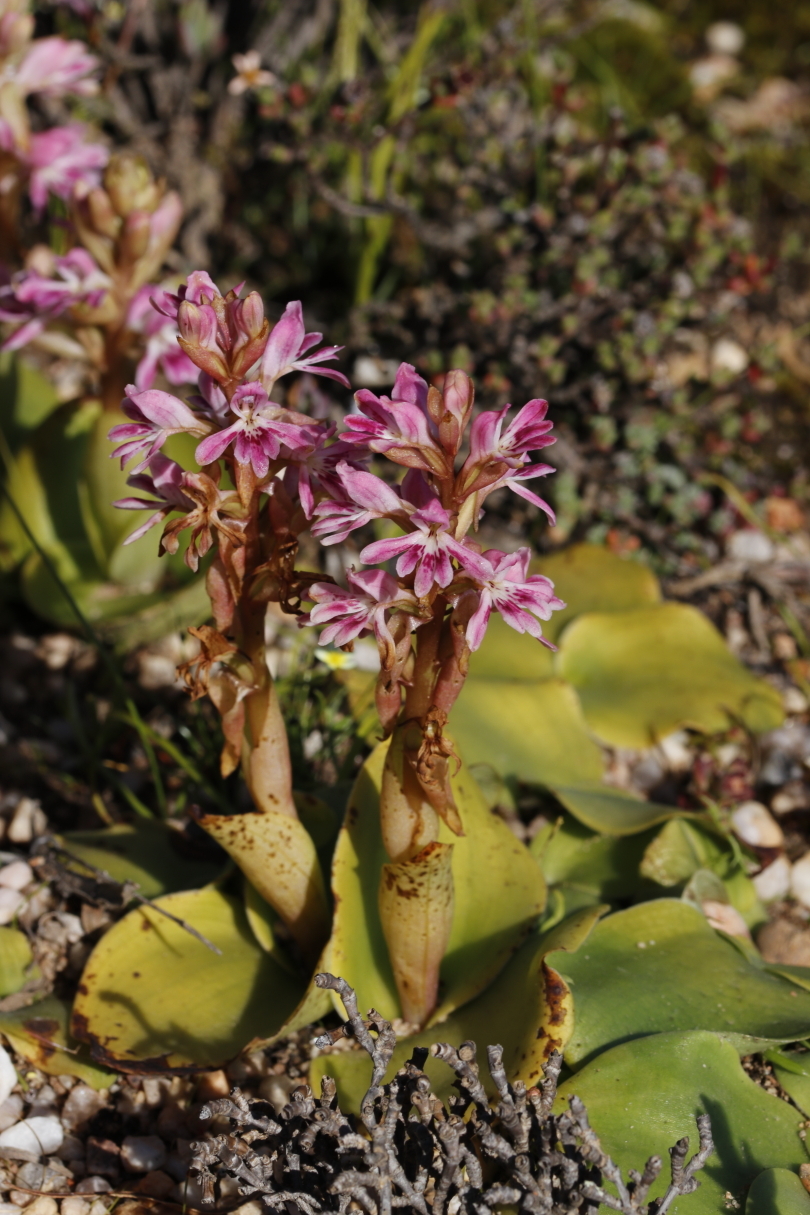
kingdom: Plantae
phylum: Tracheophyta
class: Liliopsida
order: Asparagales
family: Orchidaceae
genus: Satyrium
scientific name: Satyrium erectum
